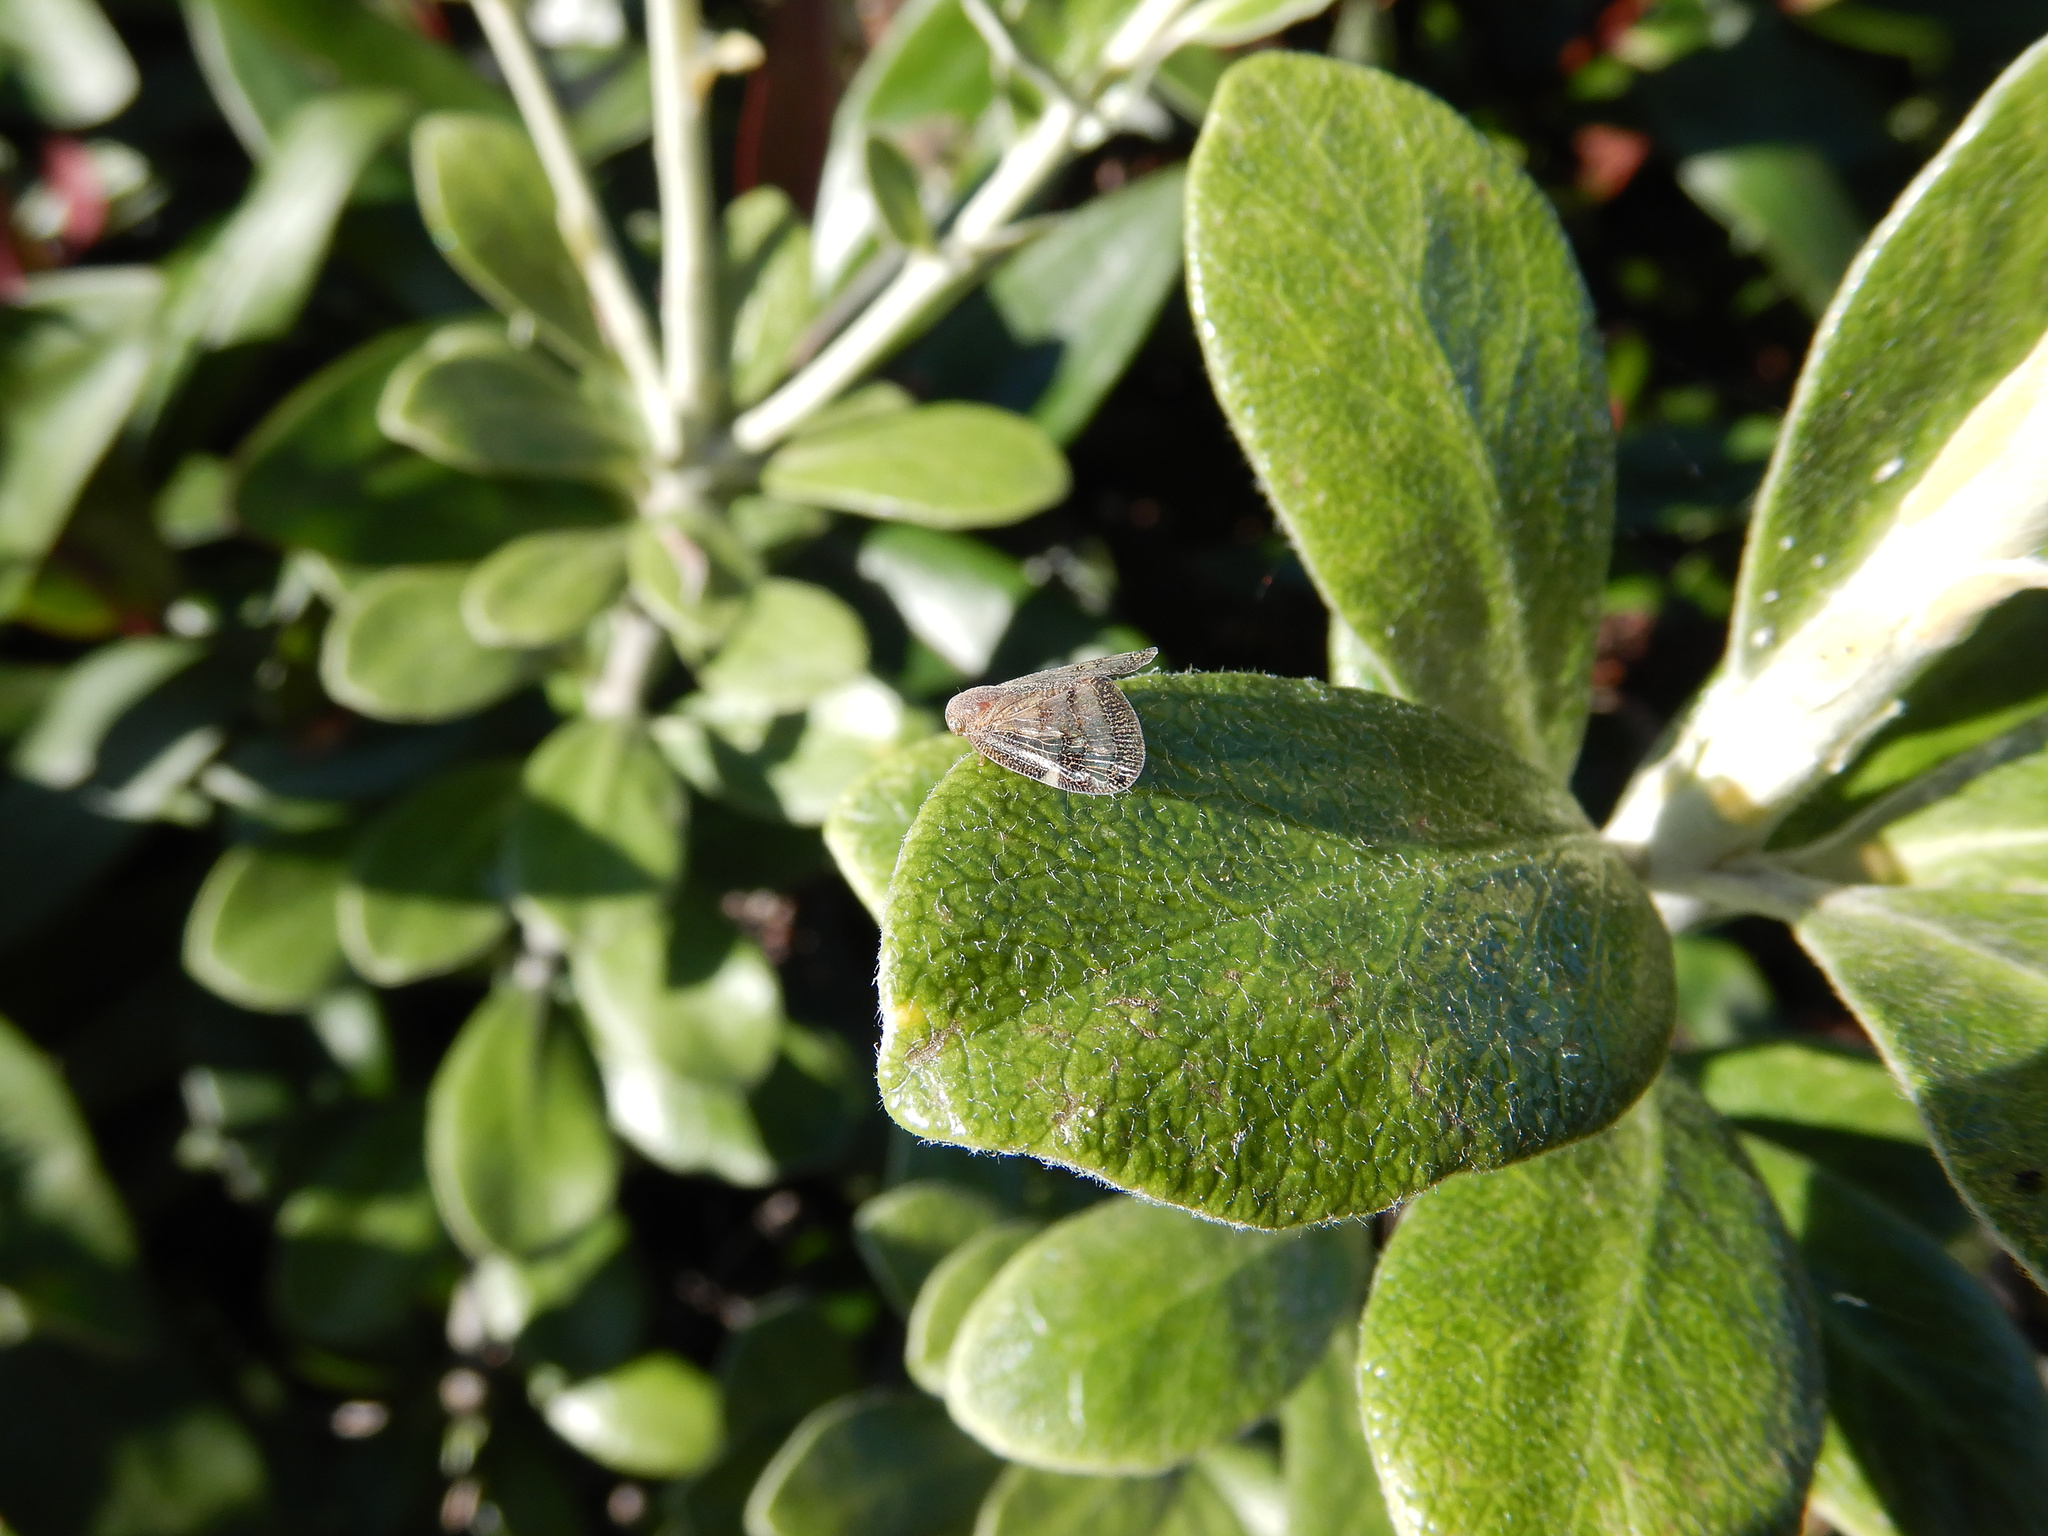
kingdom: Animalia
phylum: Arthropoda
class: Insecta
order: Hemiptera
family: Ricaniidae
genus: Scolypopa
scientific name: Scolypopa australis
